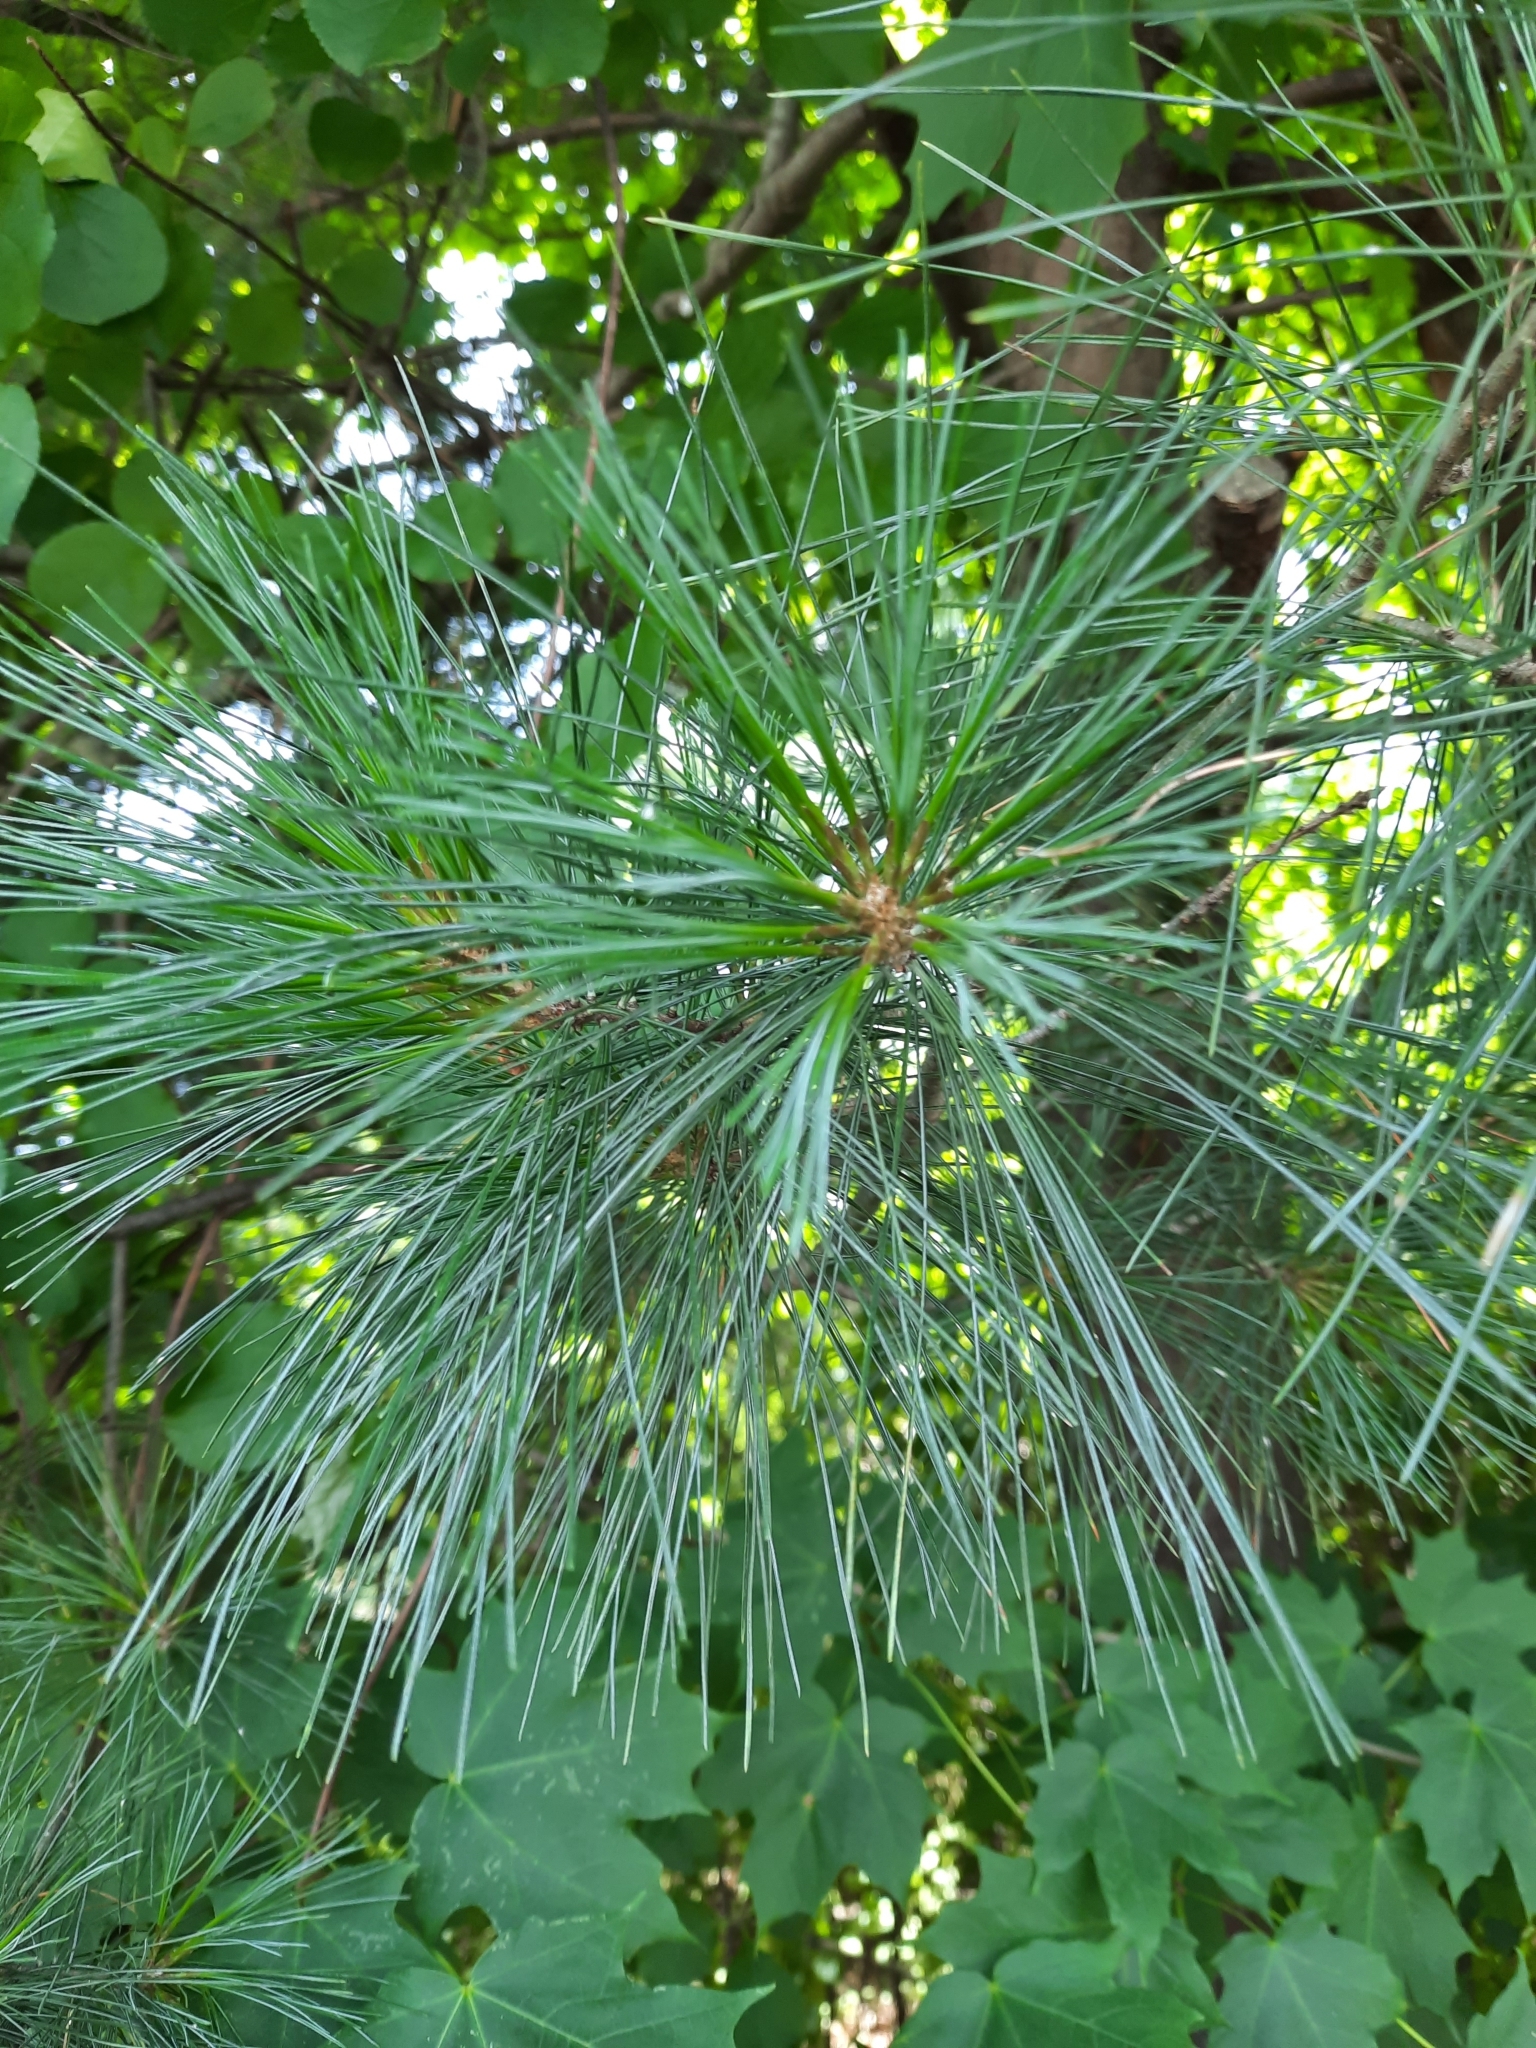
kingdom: Plantae
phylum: Tracheophyta
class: Pinopsida
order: Pinales
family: Pinaceae
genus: Pinus
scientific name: Pinus strobus
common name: Weymouth pine
